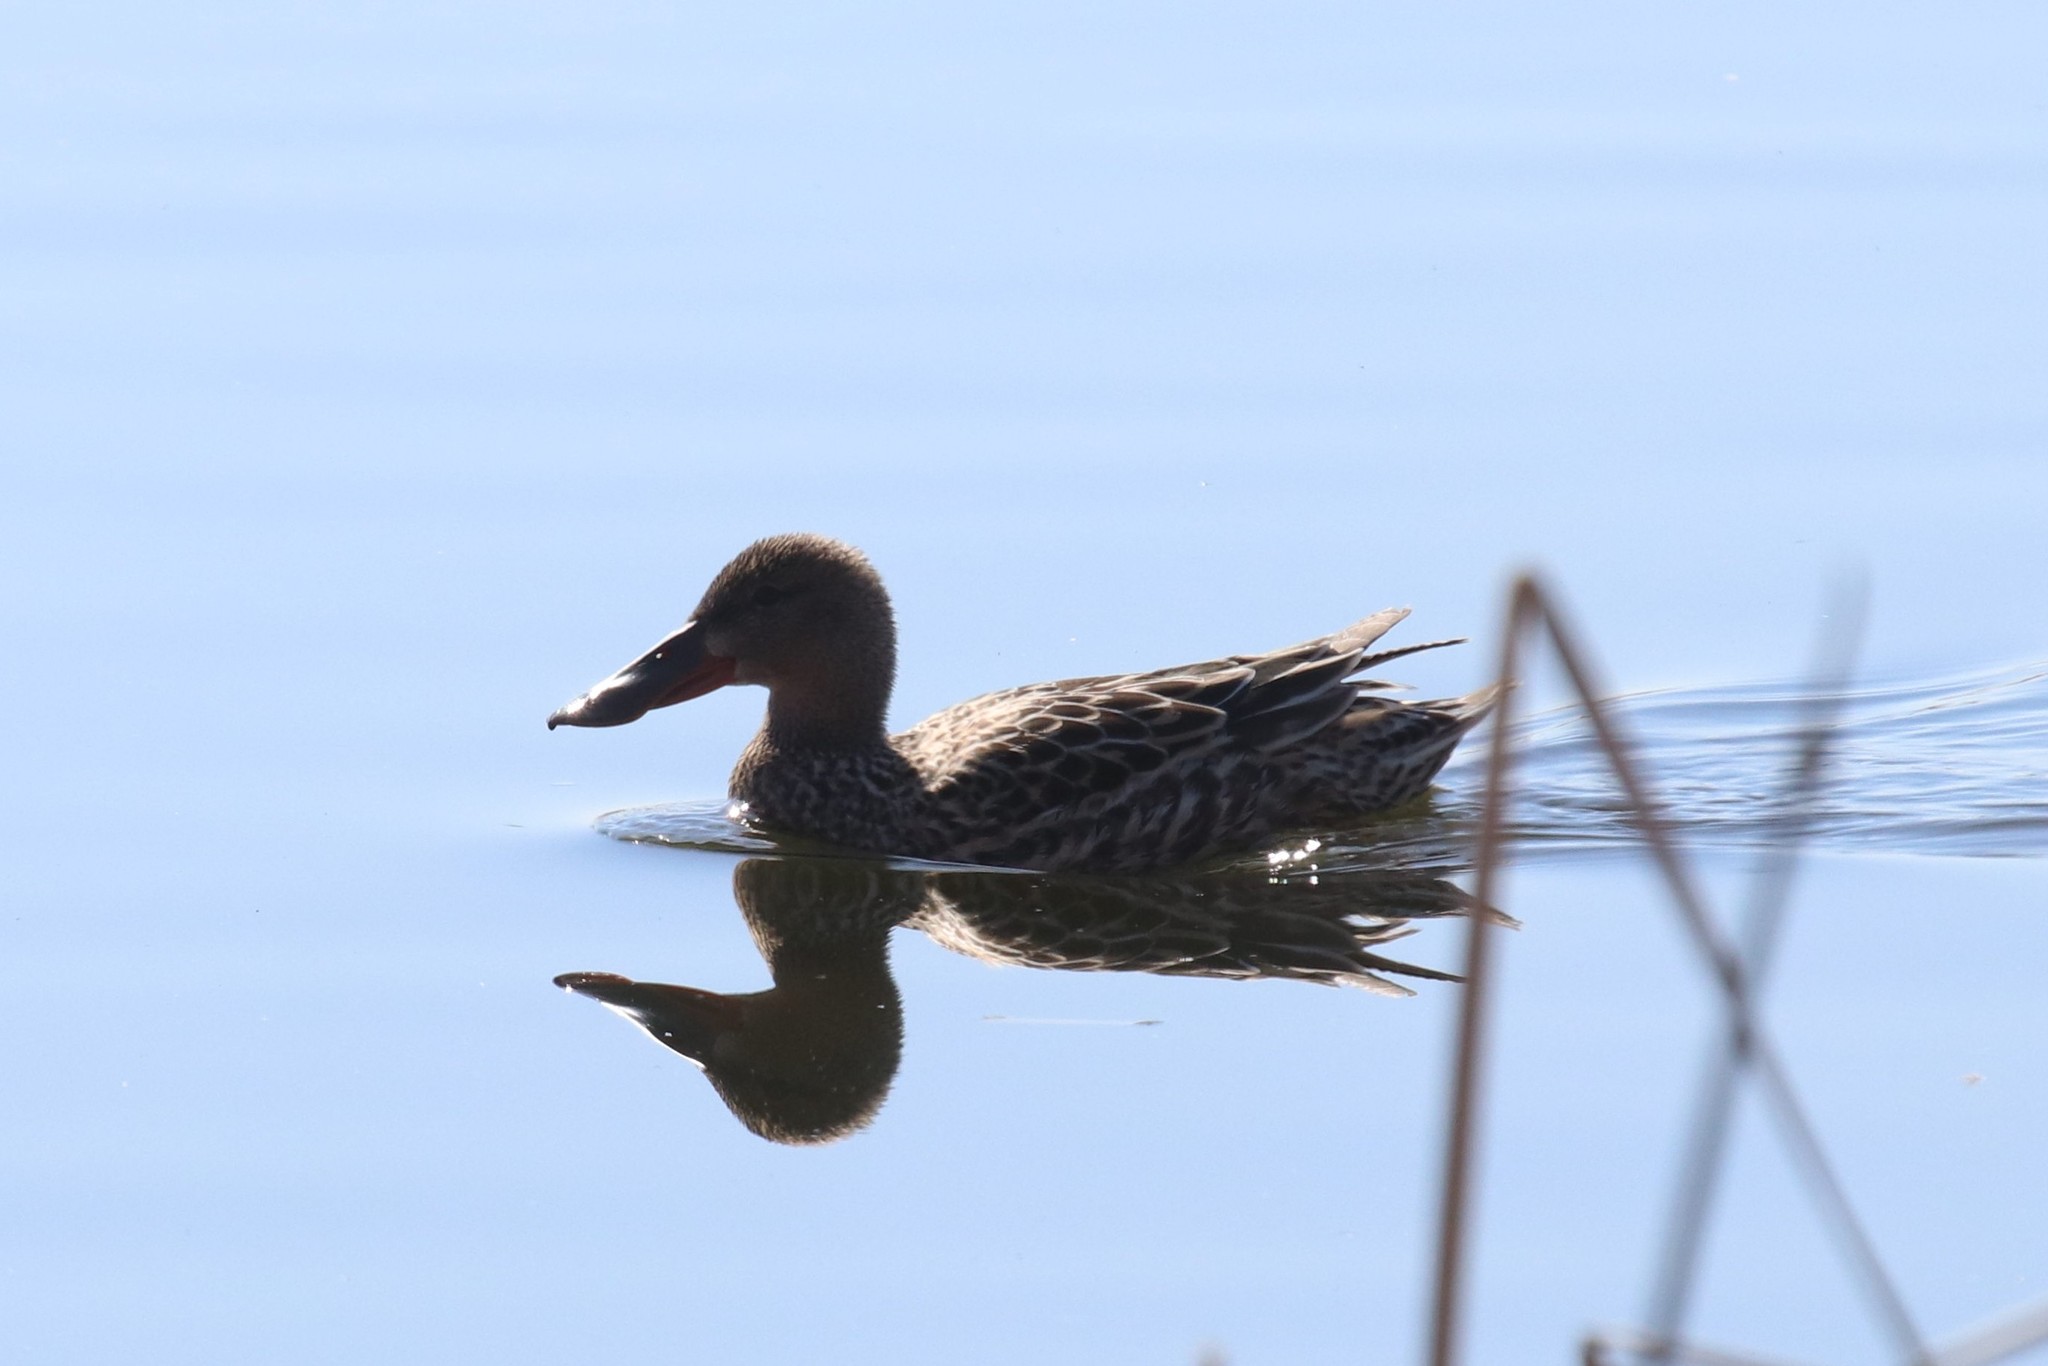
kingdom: Animalia
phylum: Chordata
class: Aves
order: Anseriformes
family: Anatidae
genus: Spatula
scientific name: Spatula clypeata
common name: Northern shoveler
